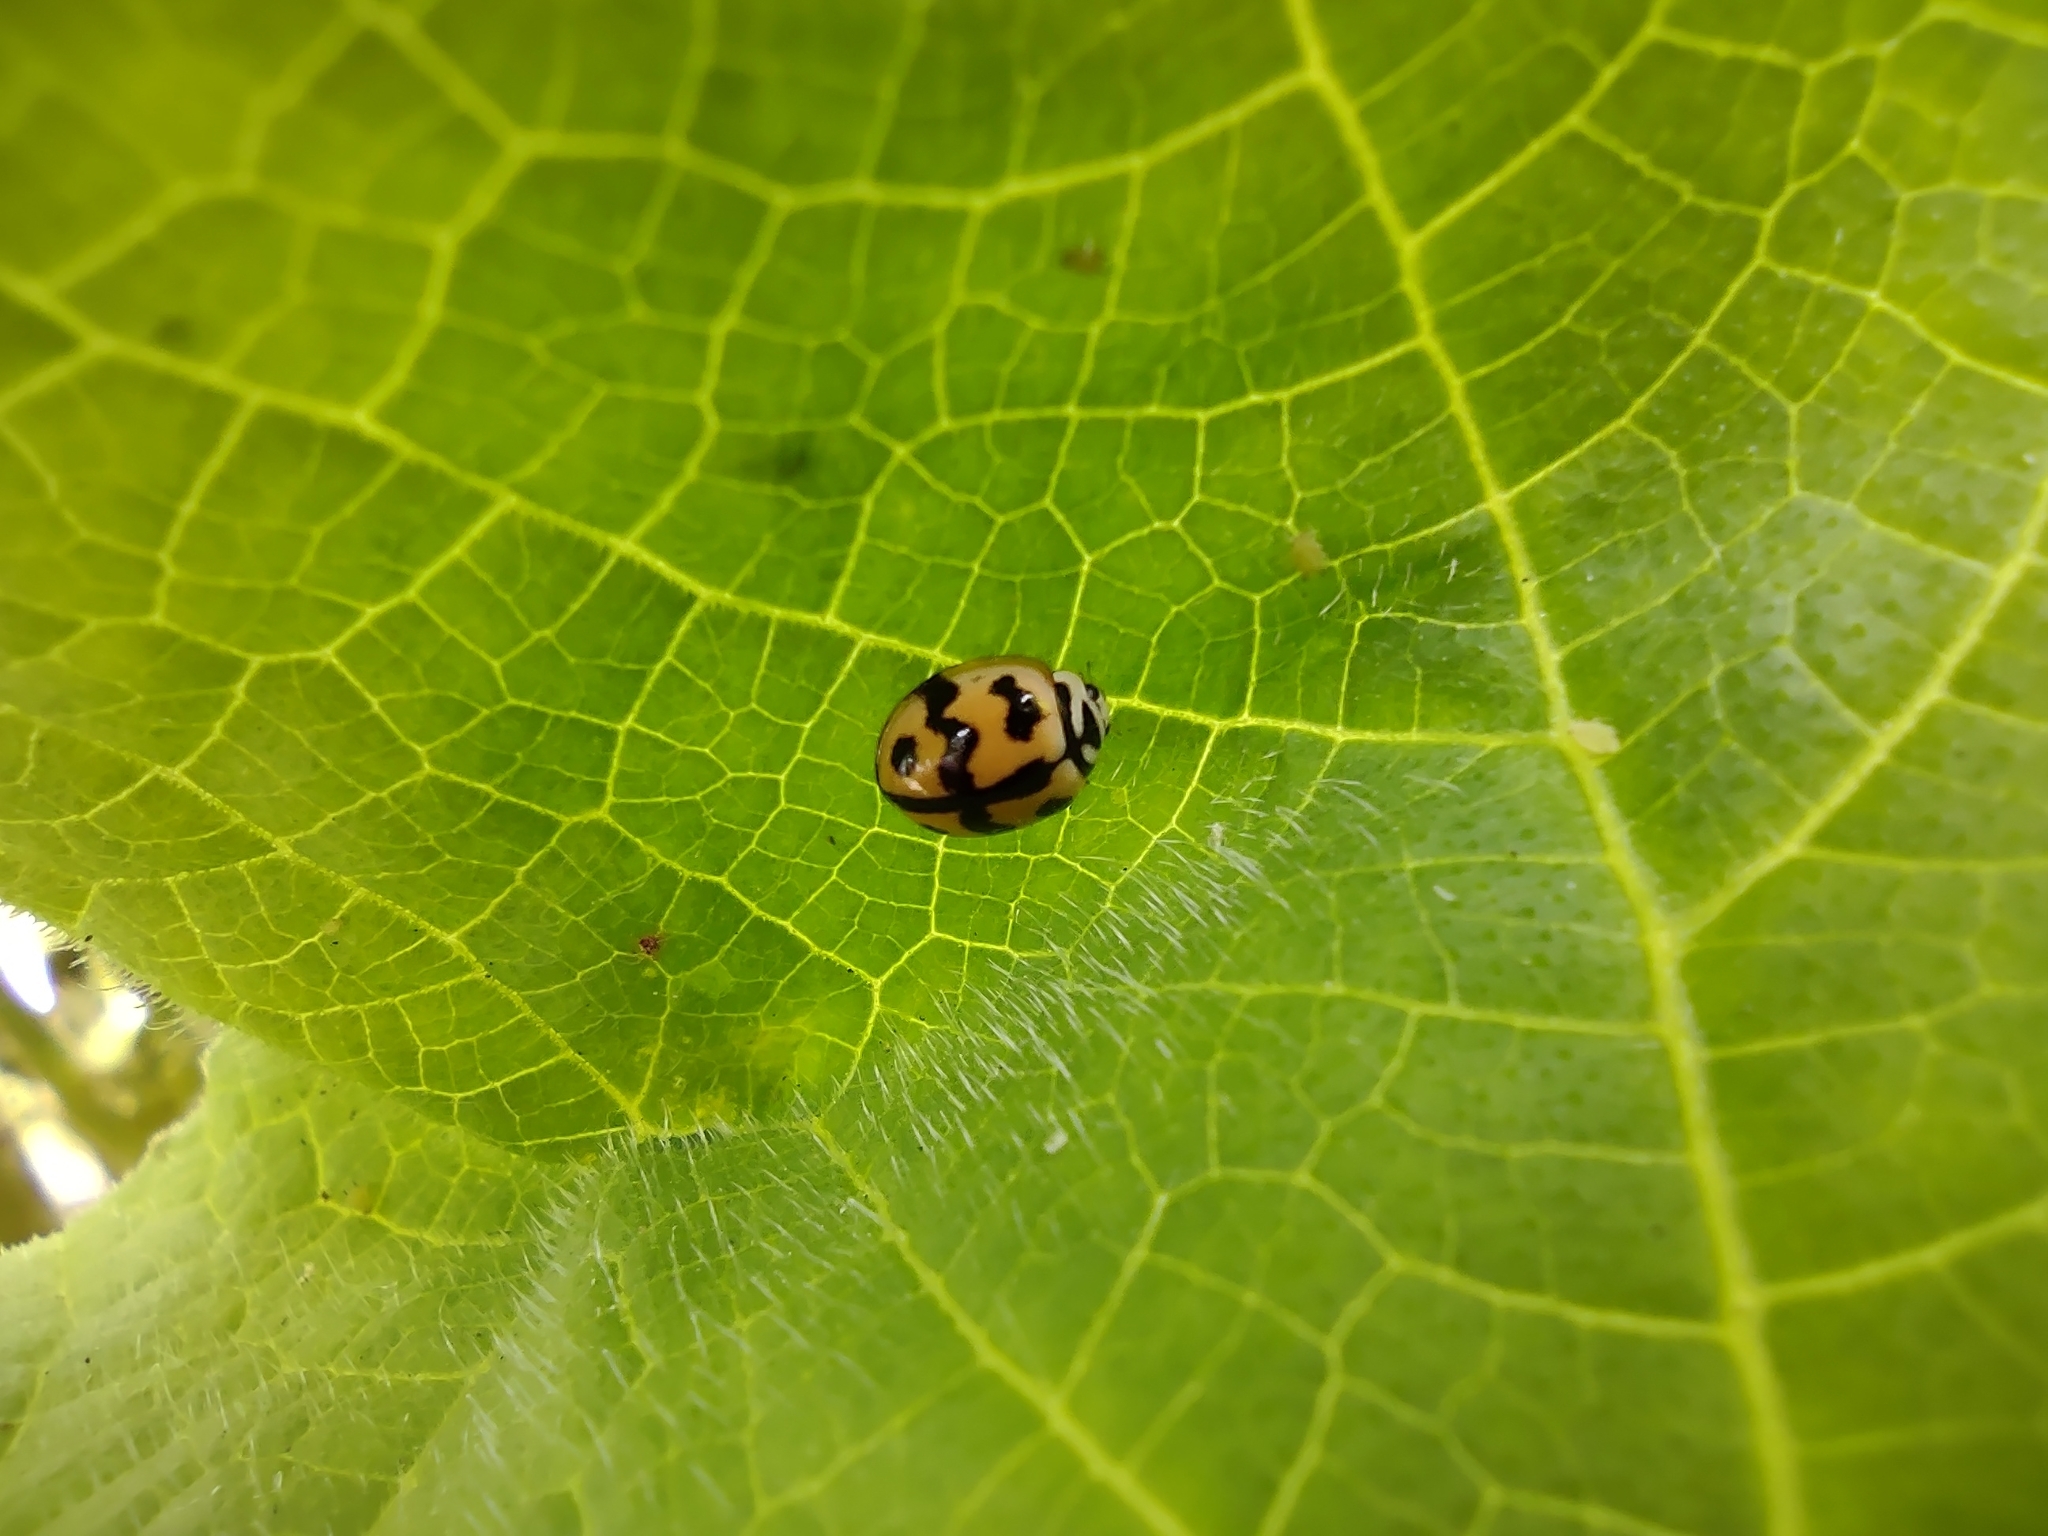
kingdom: Animalia
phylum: Arthropoda
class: Insecta
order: Coleoptera
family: Coccinellidae
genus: Cheilomenes
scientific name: Cheilomenes sexmaculata
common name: Ladybird beetle
